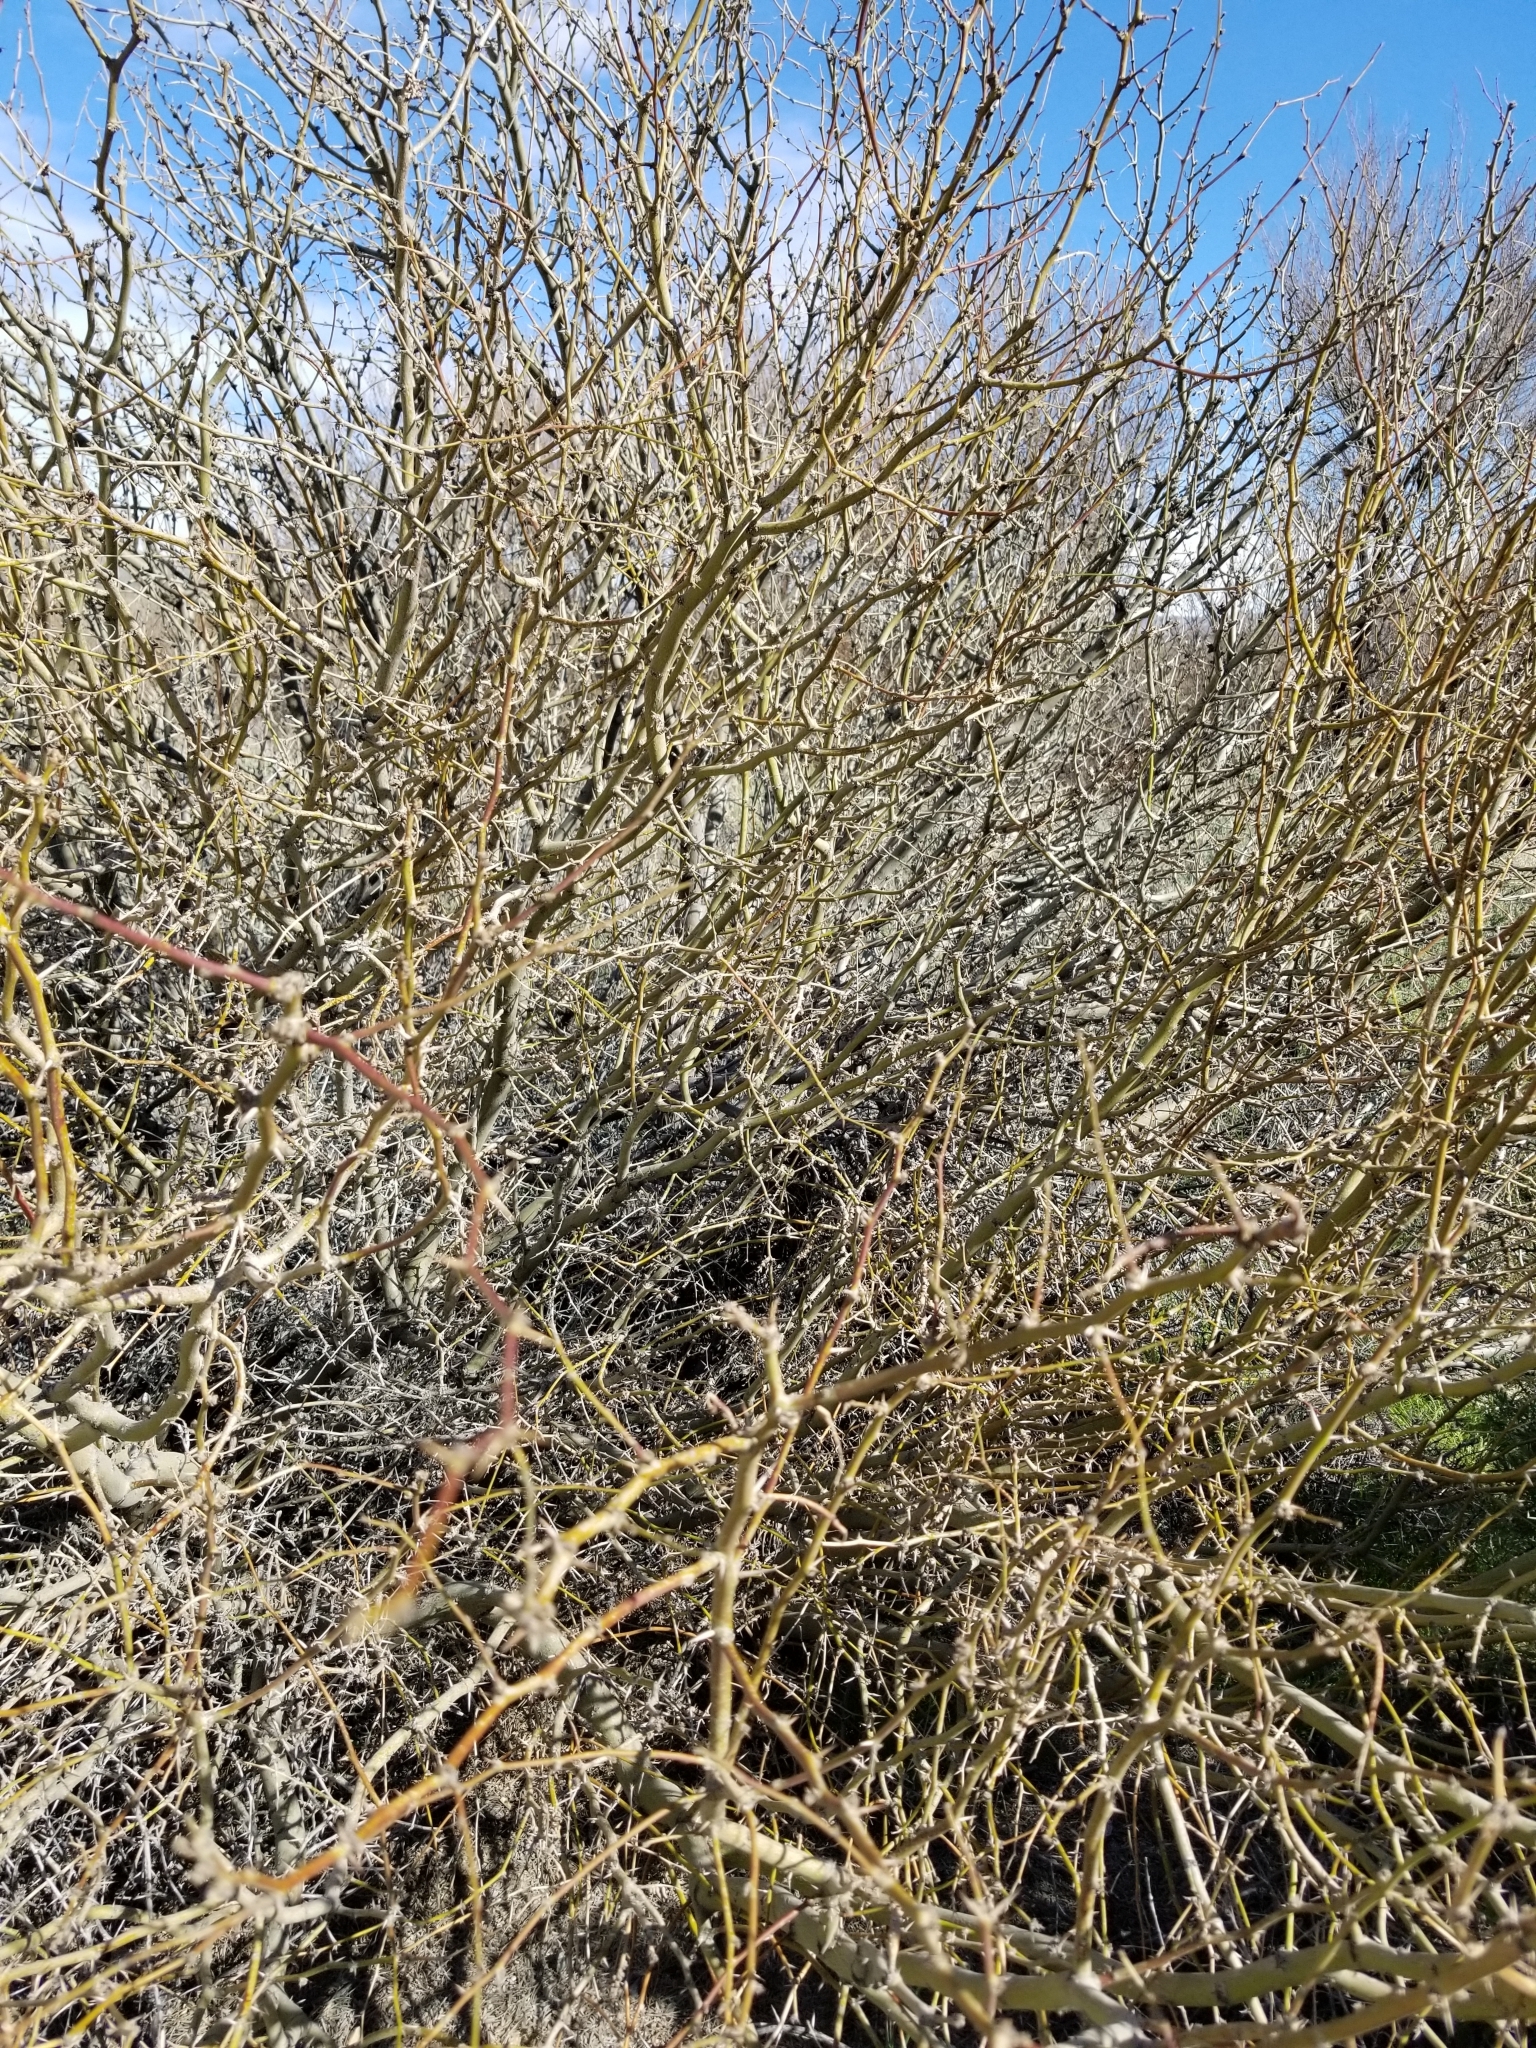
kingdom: Plantae
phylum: Tracheophyta
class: Magnoliopsida
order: Fabales
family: Fabaceae
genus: Prosopis
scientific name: Prosopis pubescens
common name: Screw-bean
